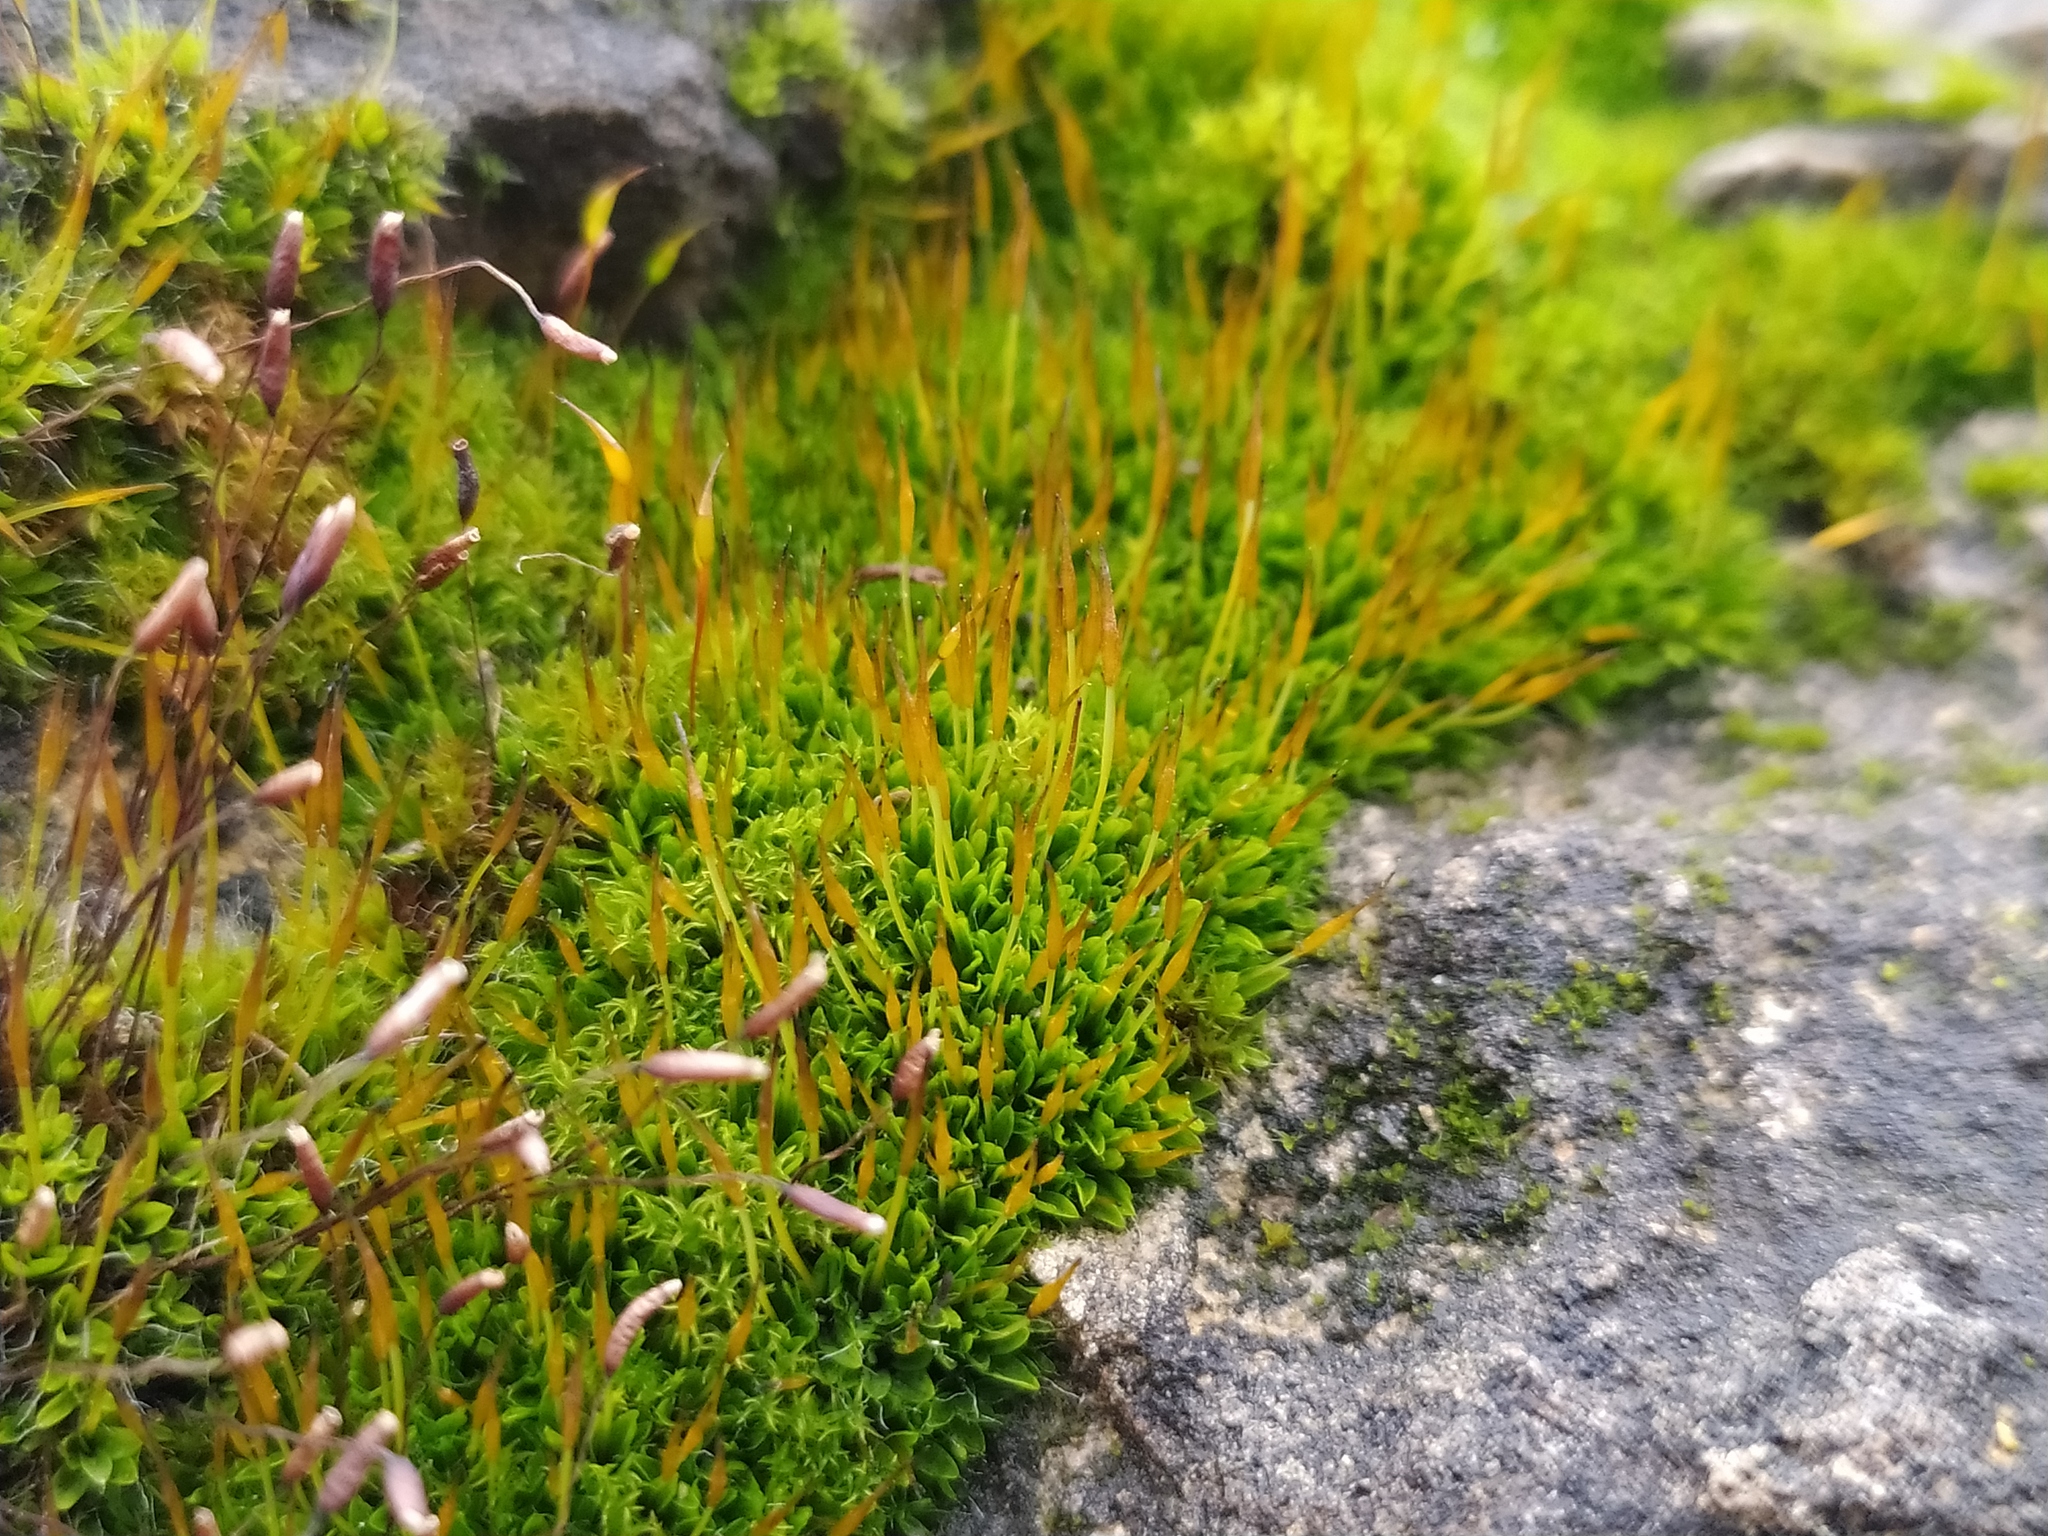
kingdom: Plantae
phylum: Bryophyta
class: Bryopsida
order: Pottiales
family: Pottiaceae
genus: Tortula
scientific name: Tortula subulata
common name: Upright screw-moss
